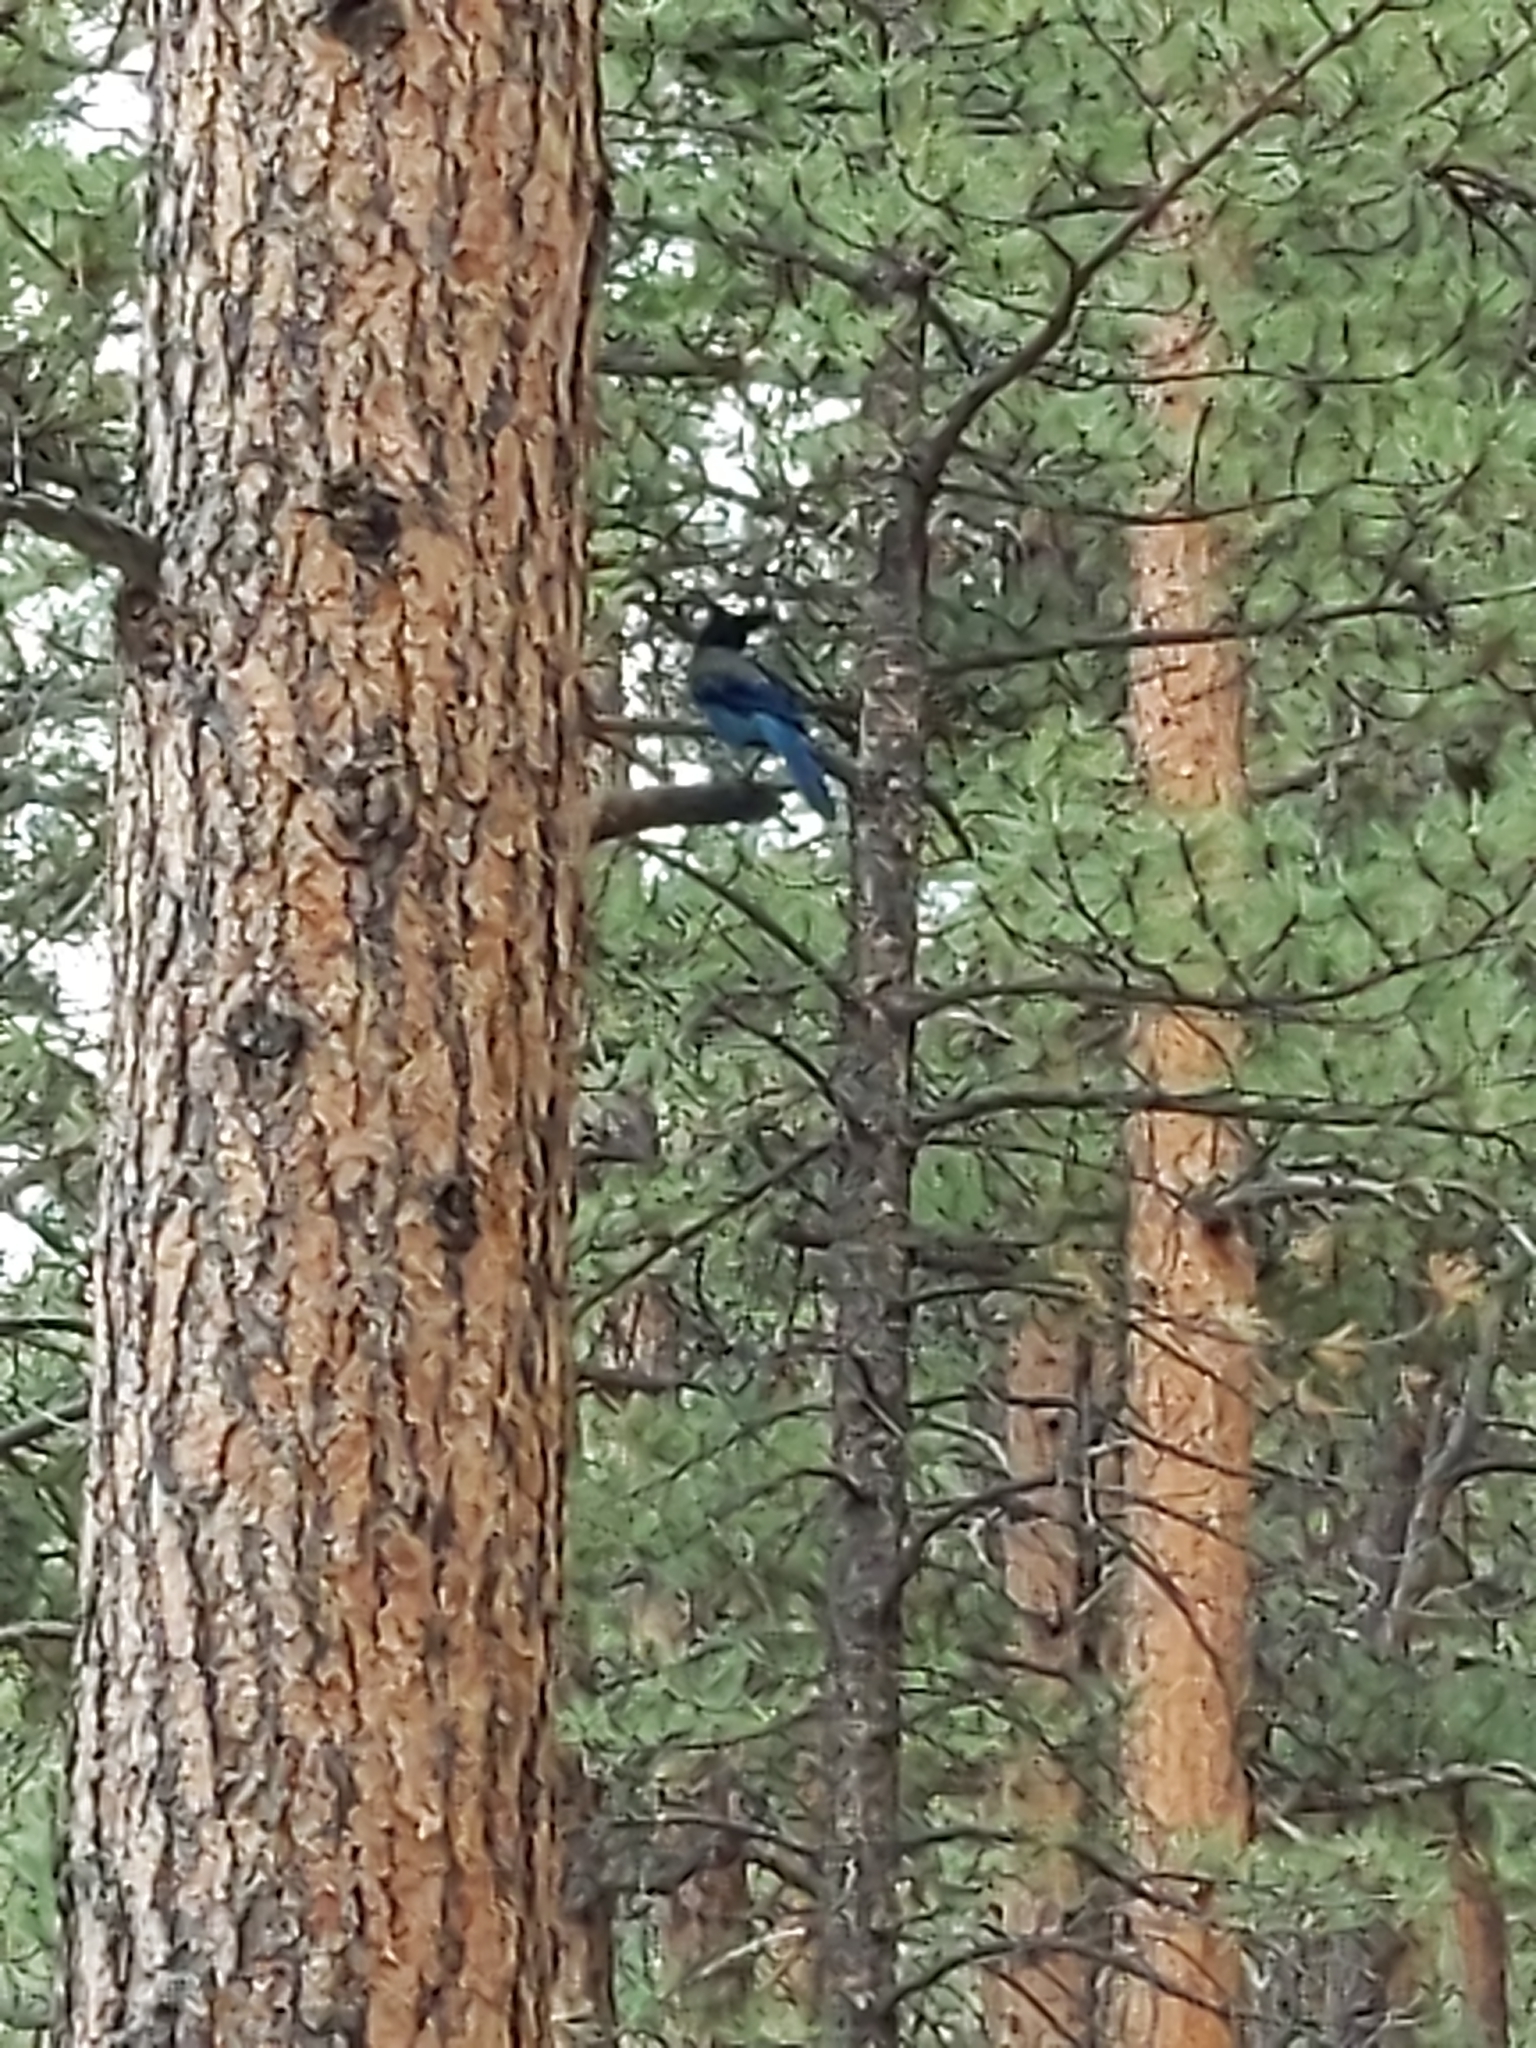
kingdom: Animalia
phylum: Chordata
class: Aves
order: Passeriformes
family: Corvidae
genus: Cyanocitta
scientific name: Cyanocitta stelleri
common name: Steller's jay
